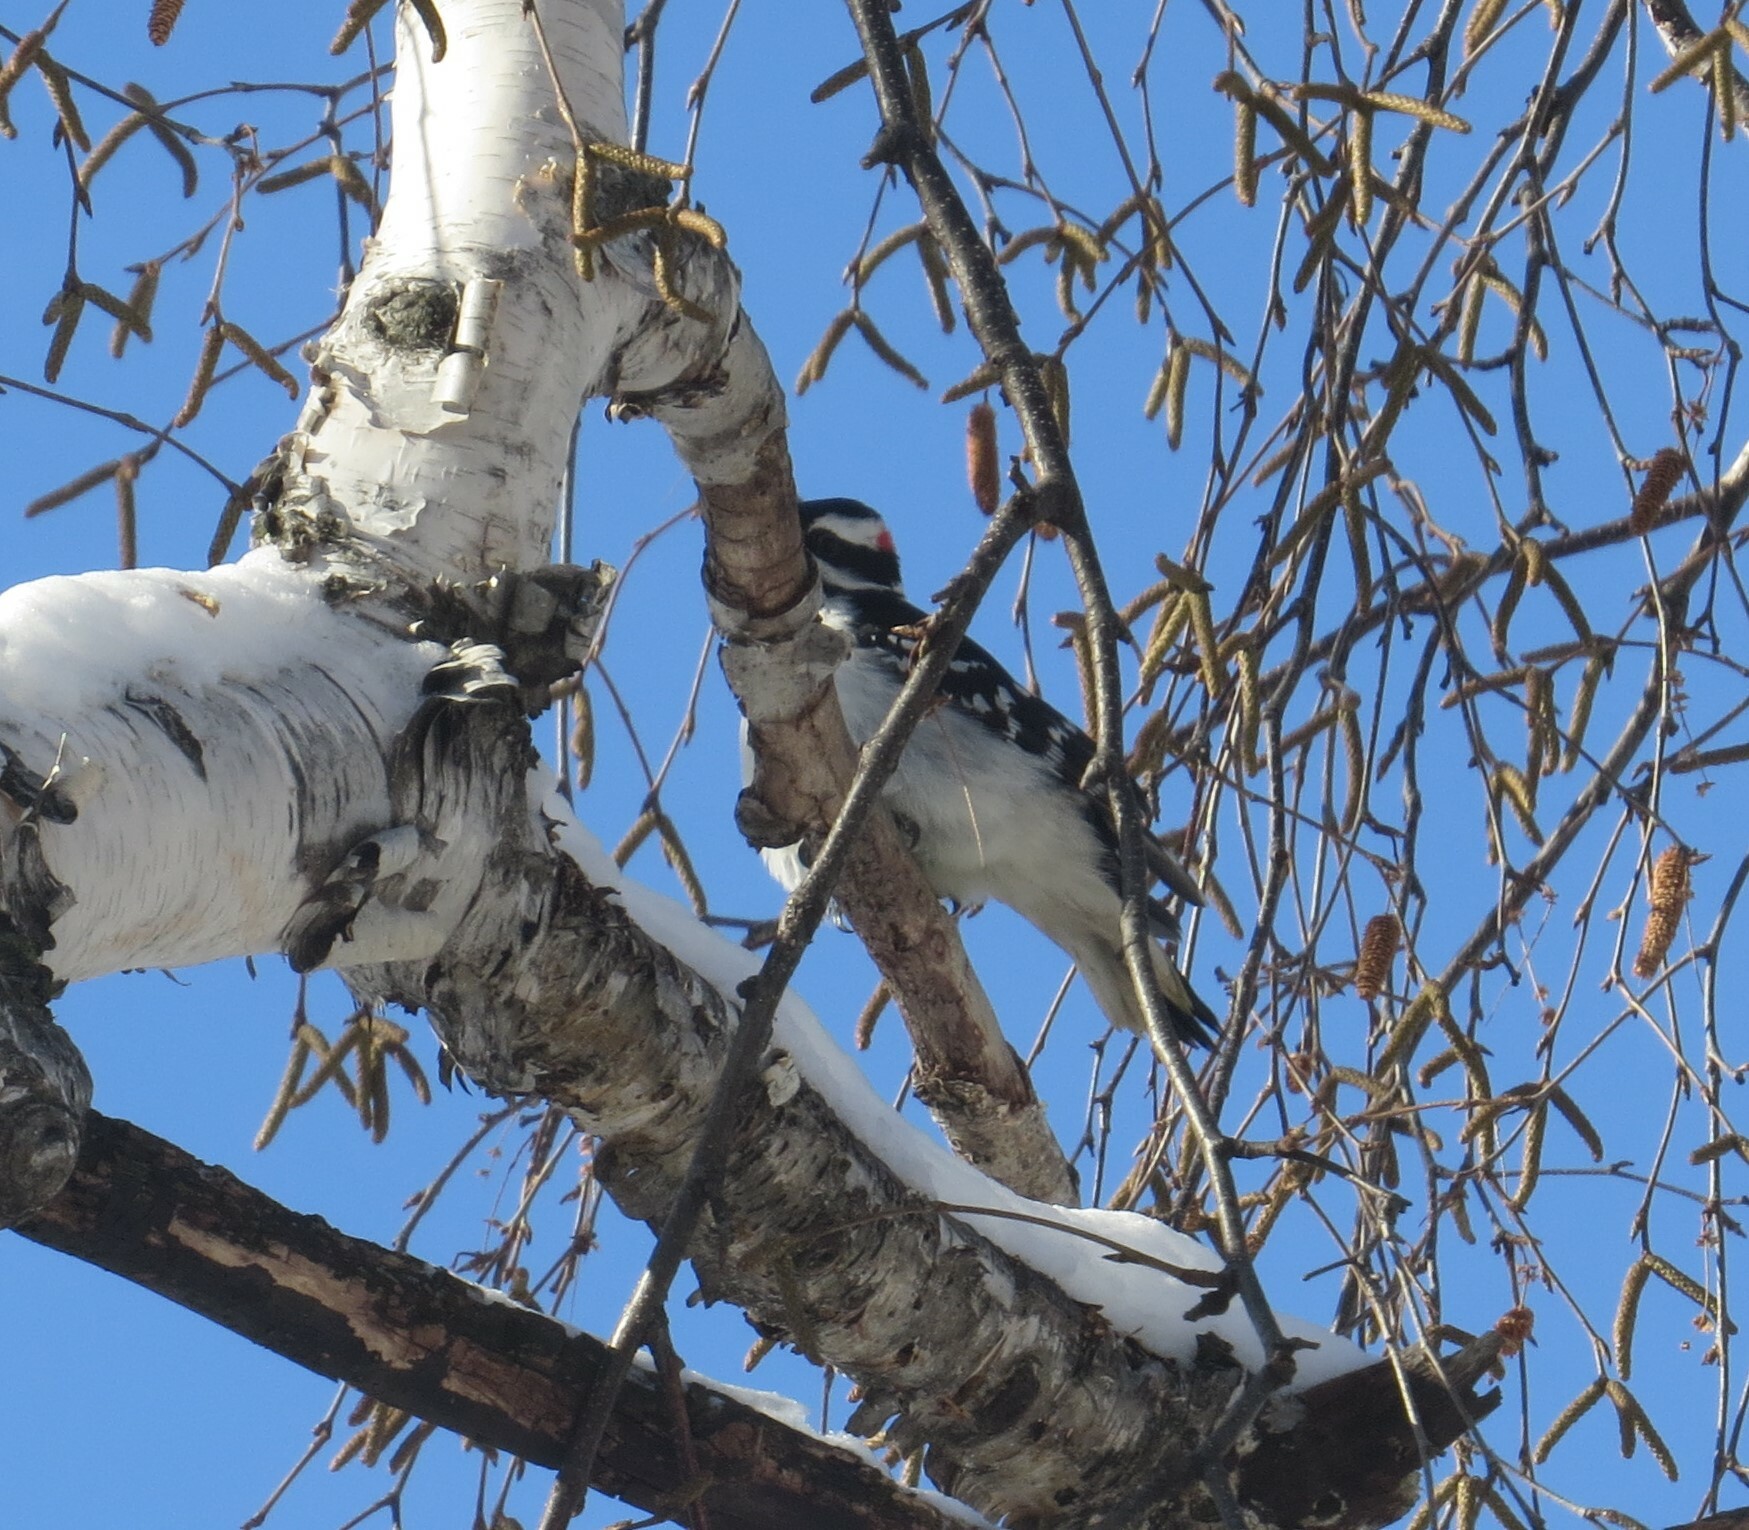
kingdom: Animalia
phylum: Chordata
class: Aves
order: Piciformes
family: Picidae
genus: Leuconotopicus
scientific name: Leuconotopicus villosus
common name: Hairy woodpecker
